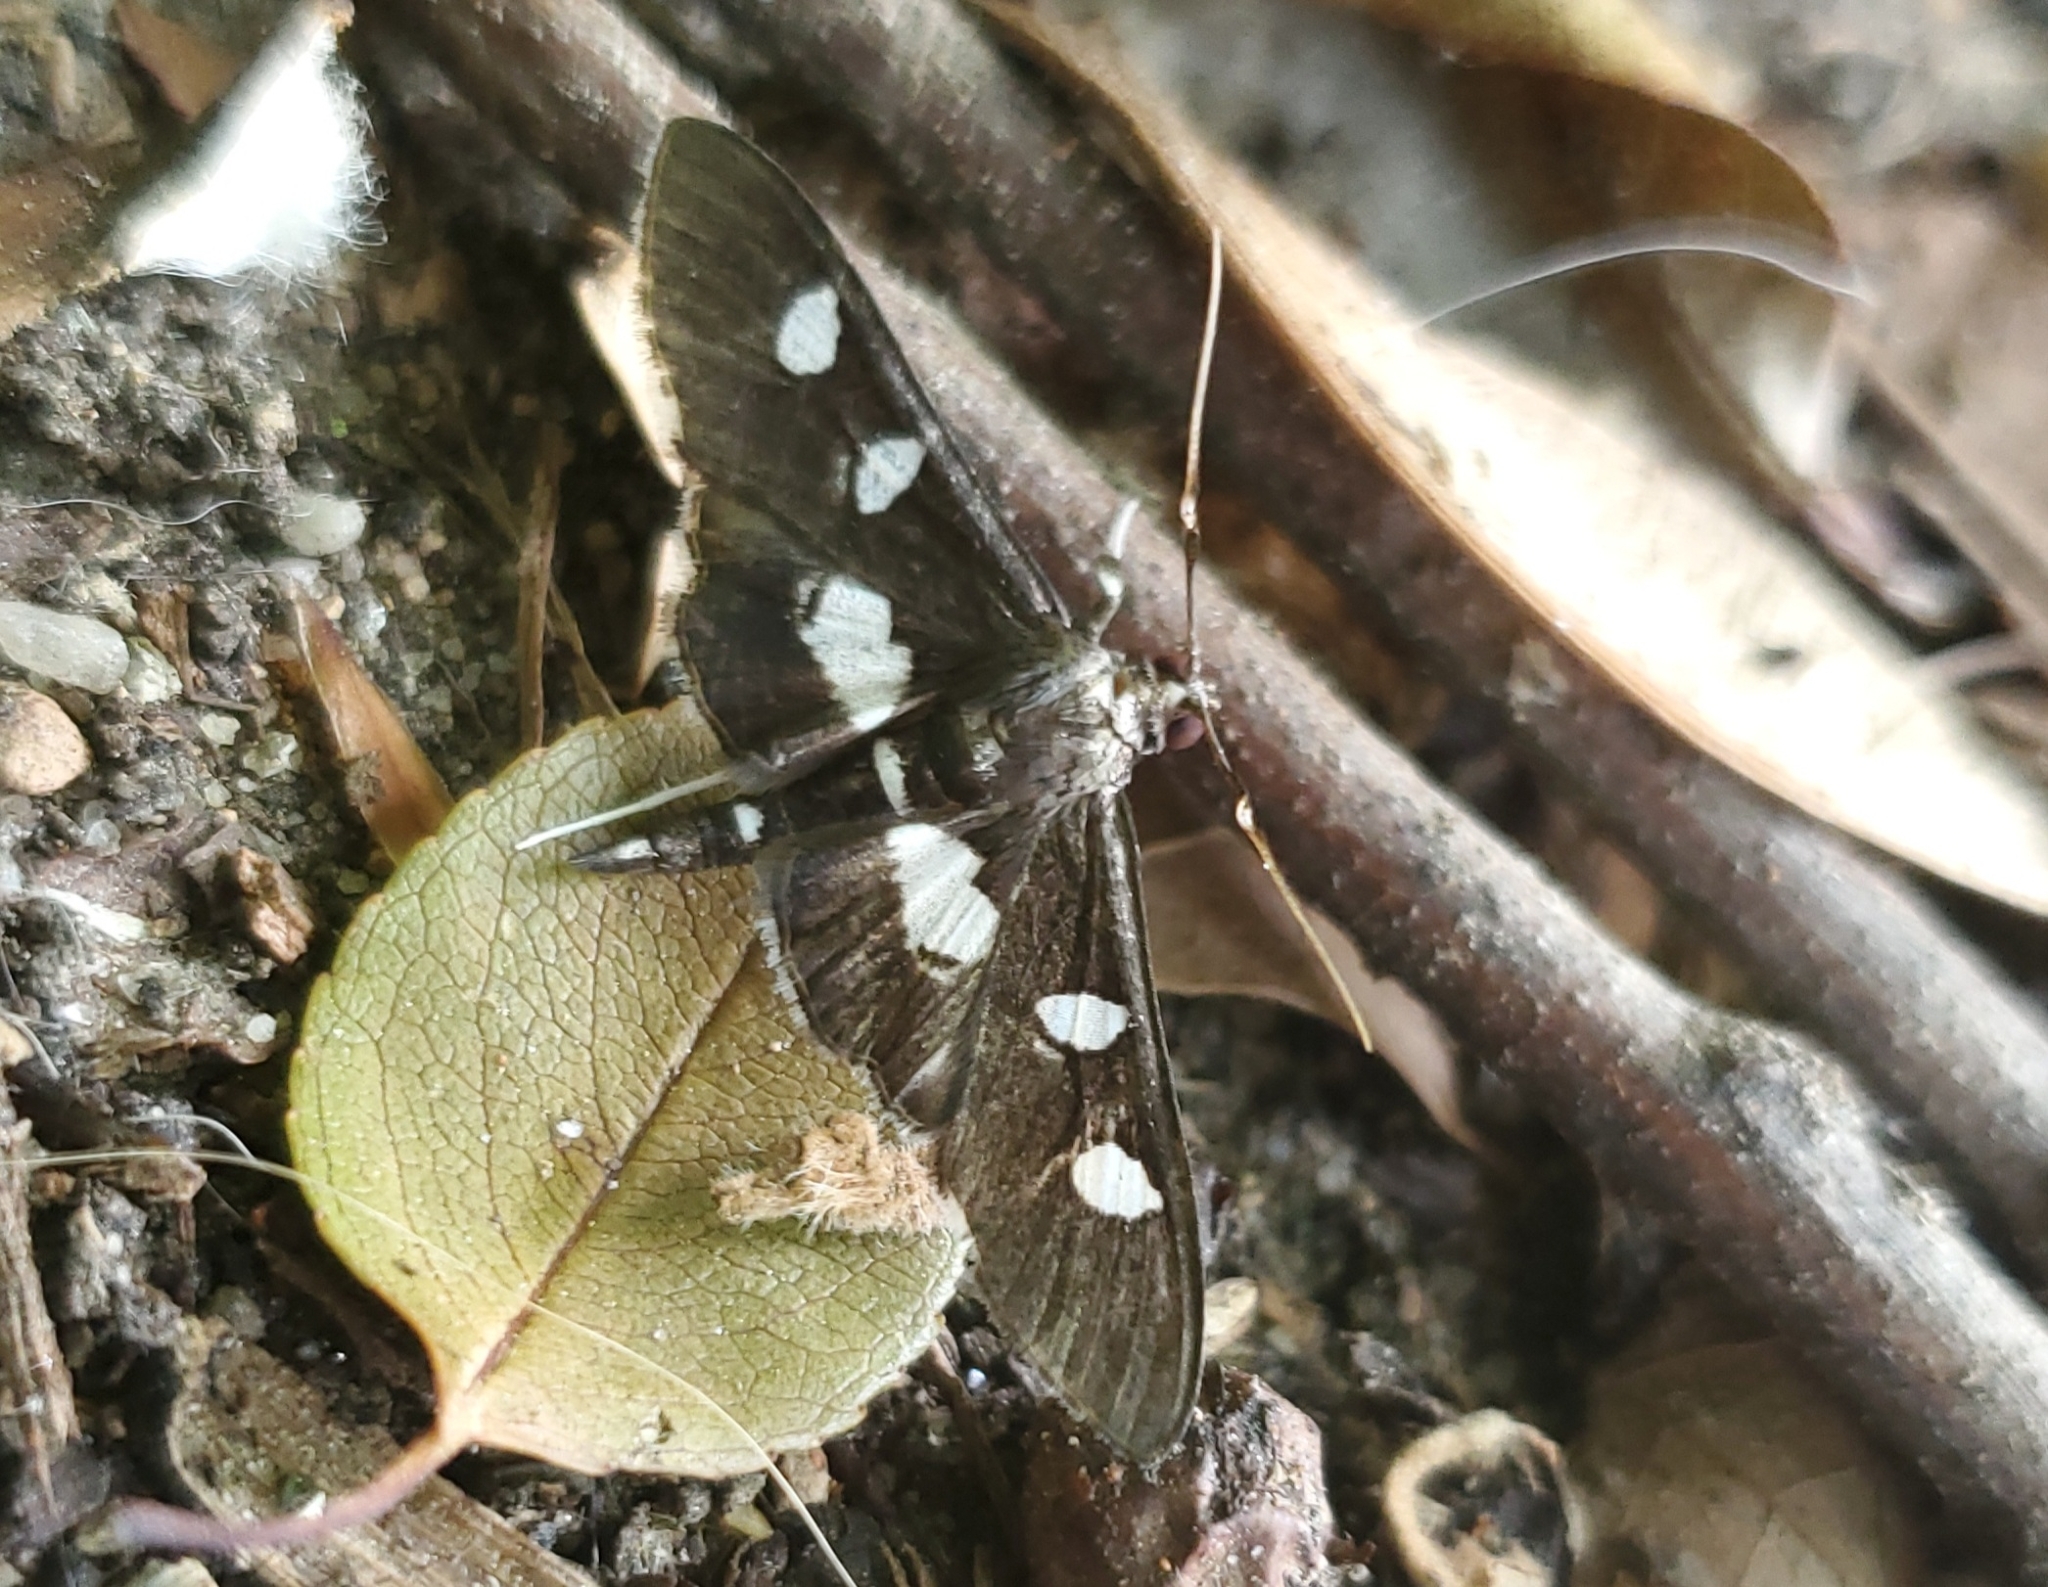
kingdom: Animalia
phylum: Arthropoda
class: Insecta
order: Lepidoptera
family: Crambidae
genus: Desmia
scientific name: Desmia
